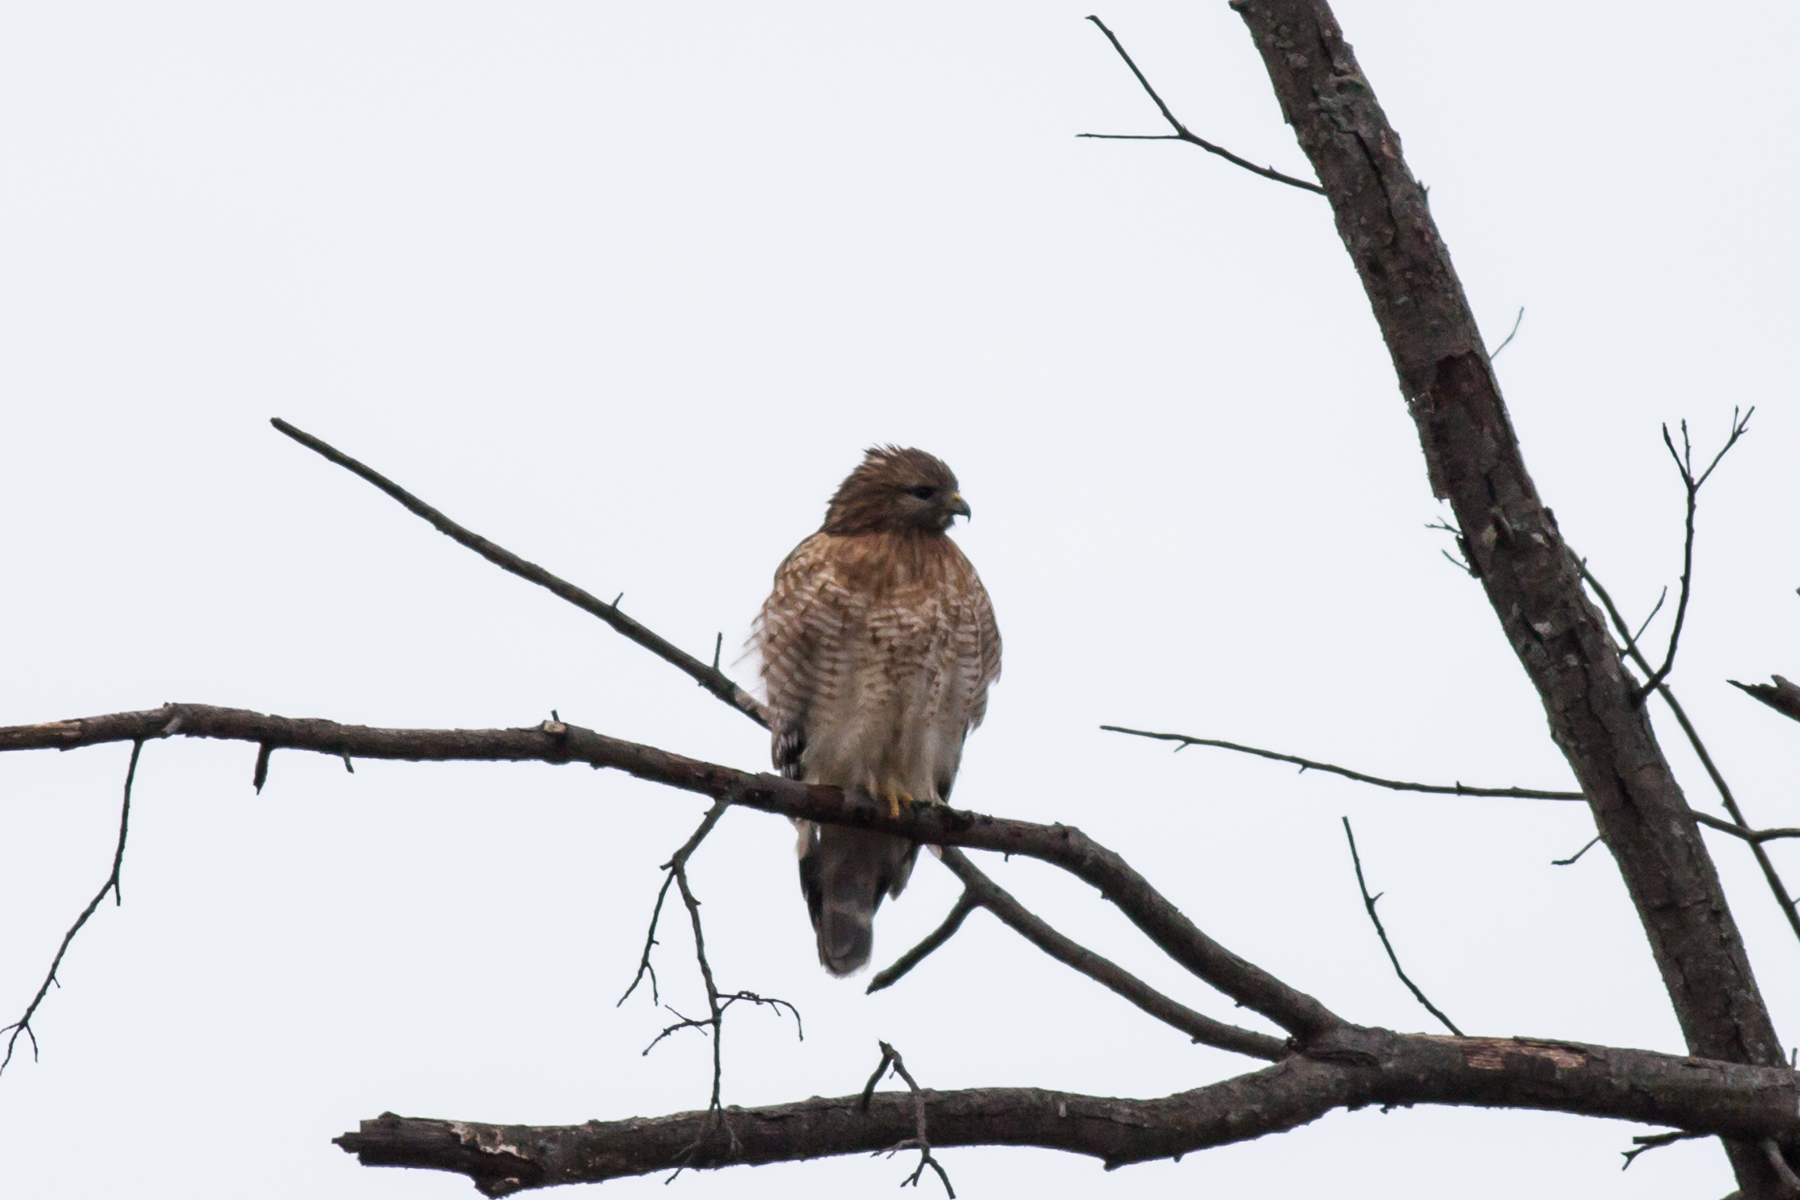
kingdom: Animalia
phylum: Chordata
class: Aves
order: Accipitriformes
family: Accipitridae
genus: Buteo
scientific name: Buteo lineatus
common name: Red-shouldered hawk
